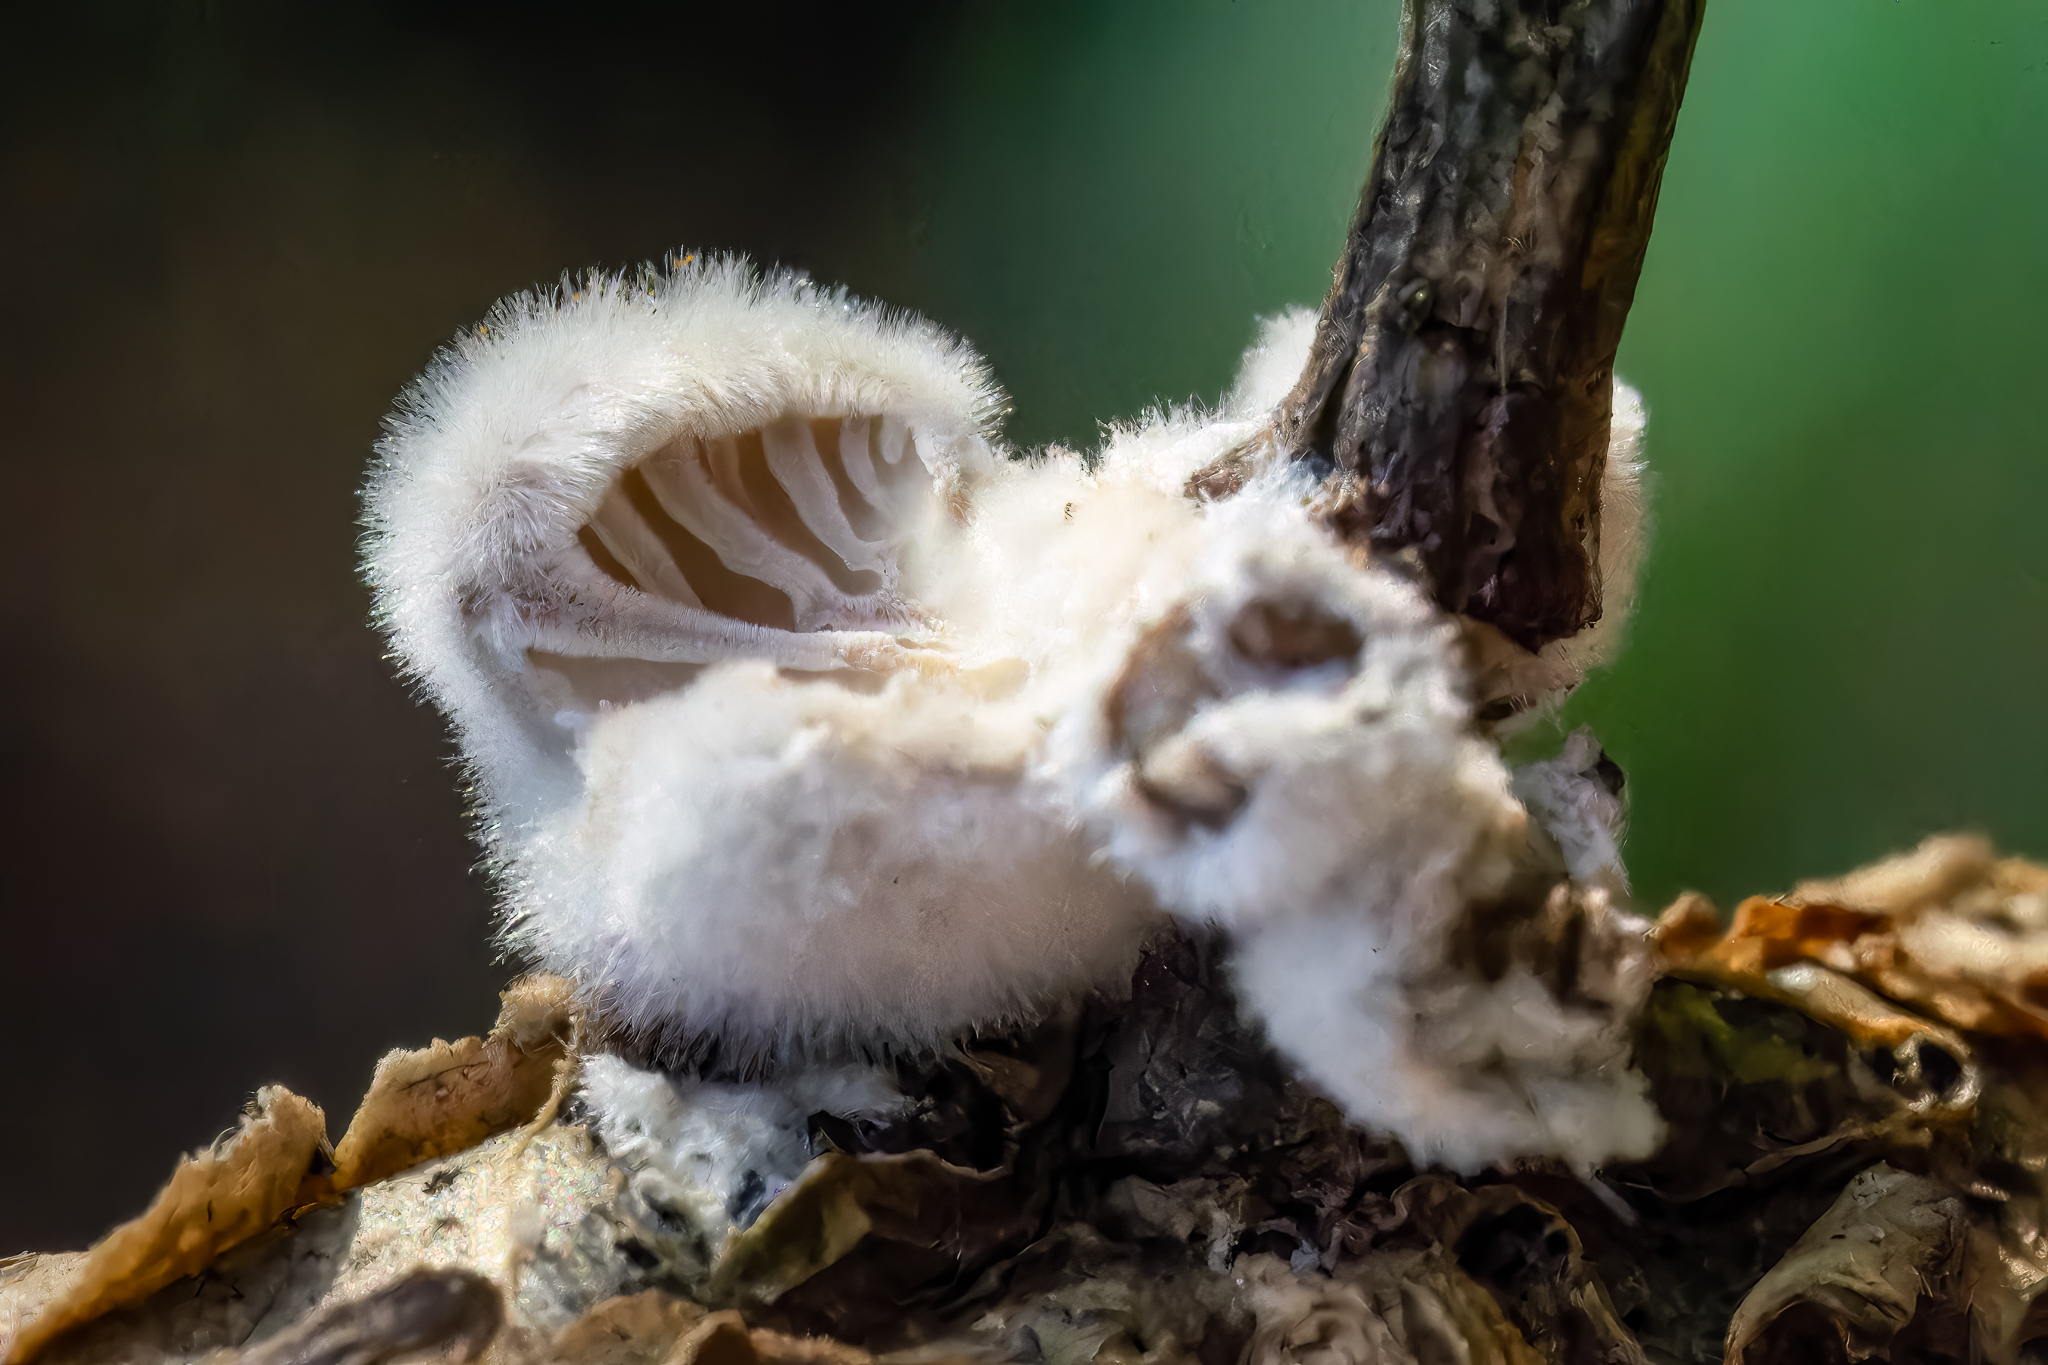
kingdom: Fungi
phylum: Basidiomycota
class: Agaricomycetes
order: Agaricales
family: Schizophyllaceae
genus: Schizophyllum
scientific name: Schizophyllum commune
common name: Common porecrust
